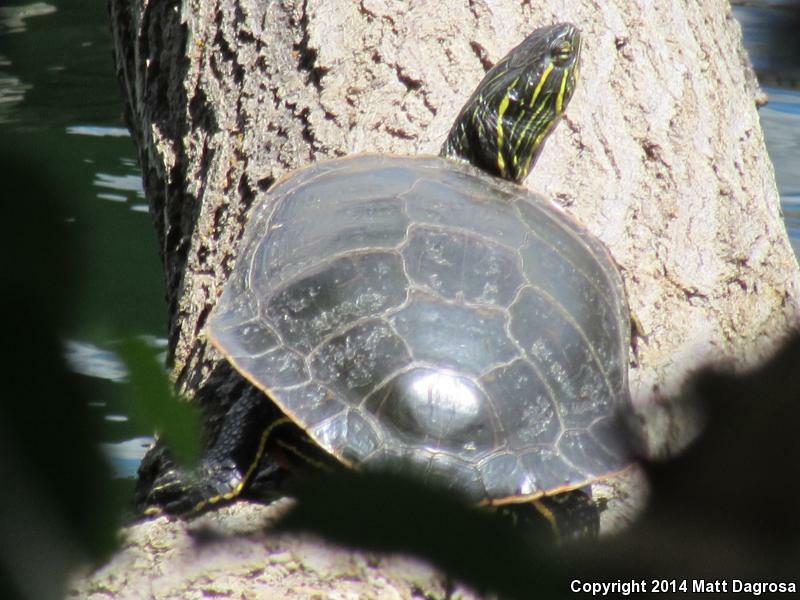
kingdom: Animalia
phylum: Chordata
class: Testudines
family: Emydidae
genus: Chrysemys
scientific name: Chrysemys picta
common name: Painted turtle
